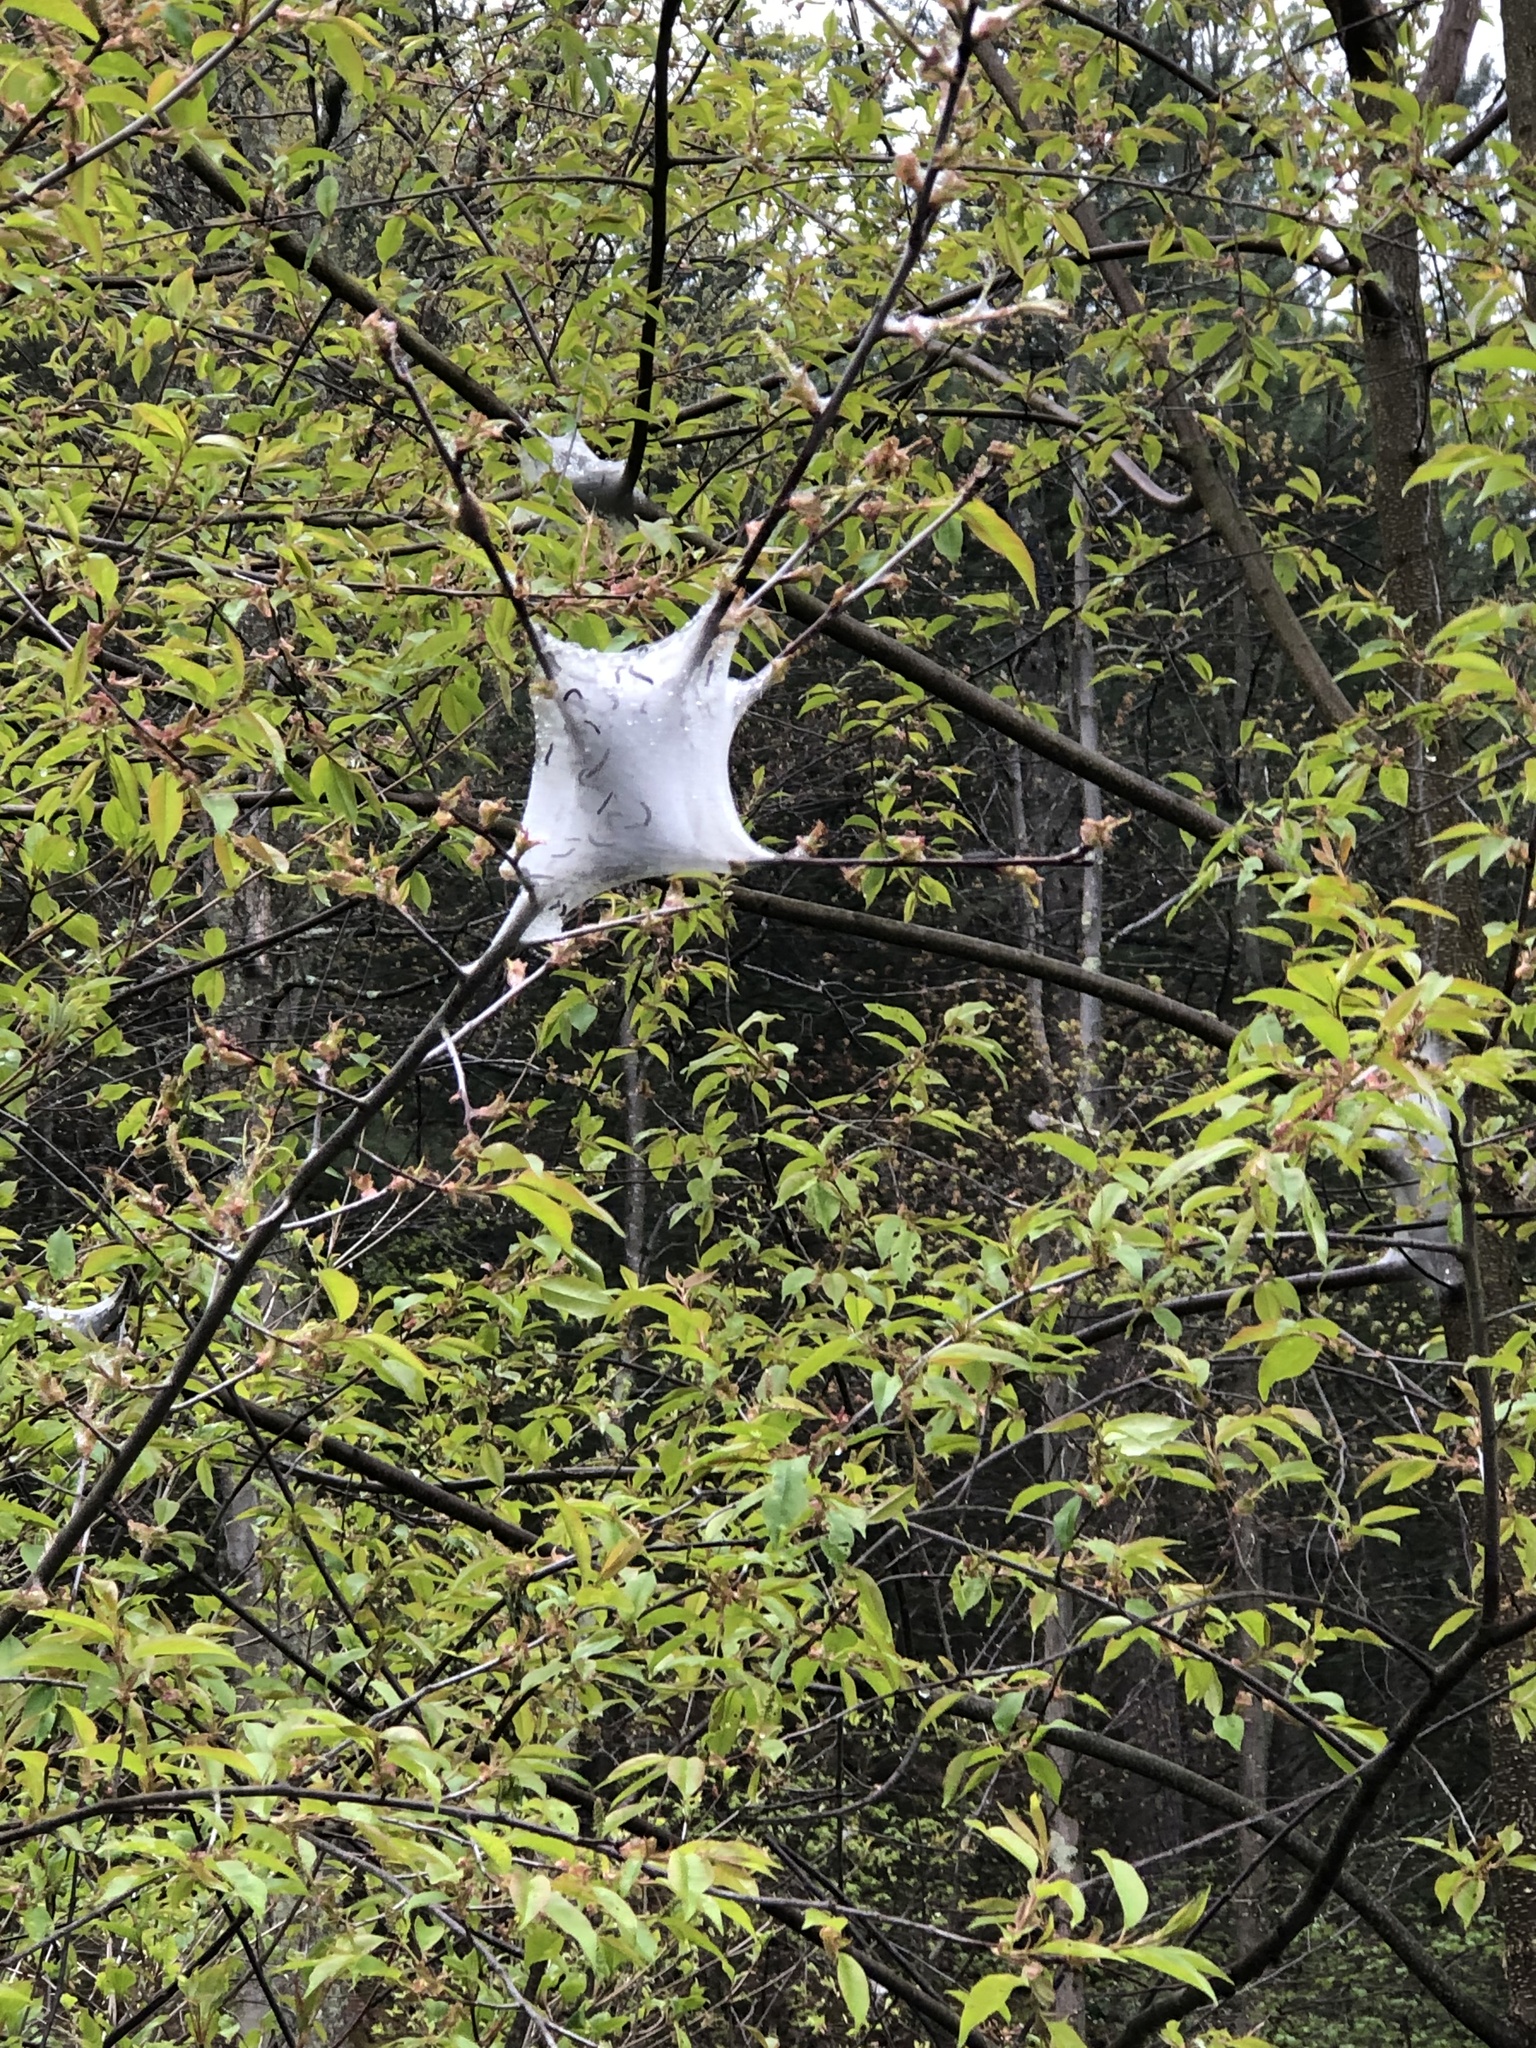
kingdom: Animalia
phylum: Arthropoda
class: Insecta
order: Lepidoptera
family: Lasiocampidae
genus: Malacosoma
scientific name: Malacosoma americana
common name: Eastern tent caterpillar moth
